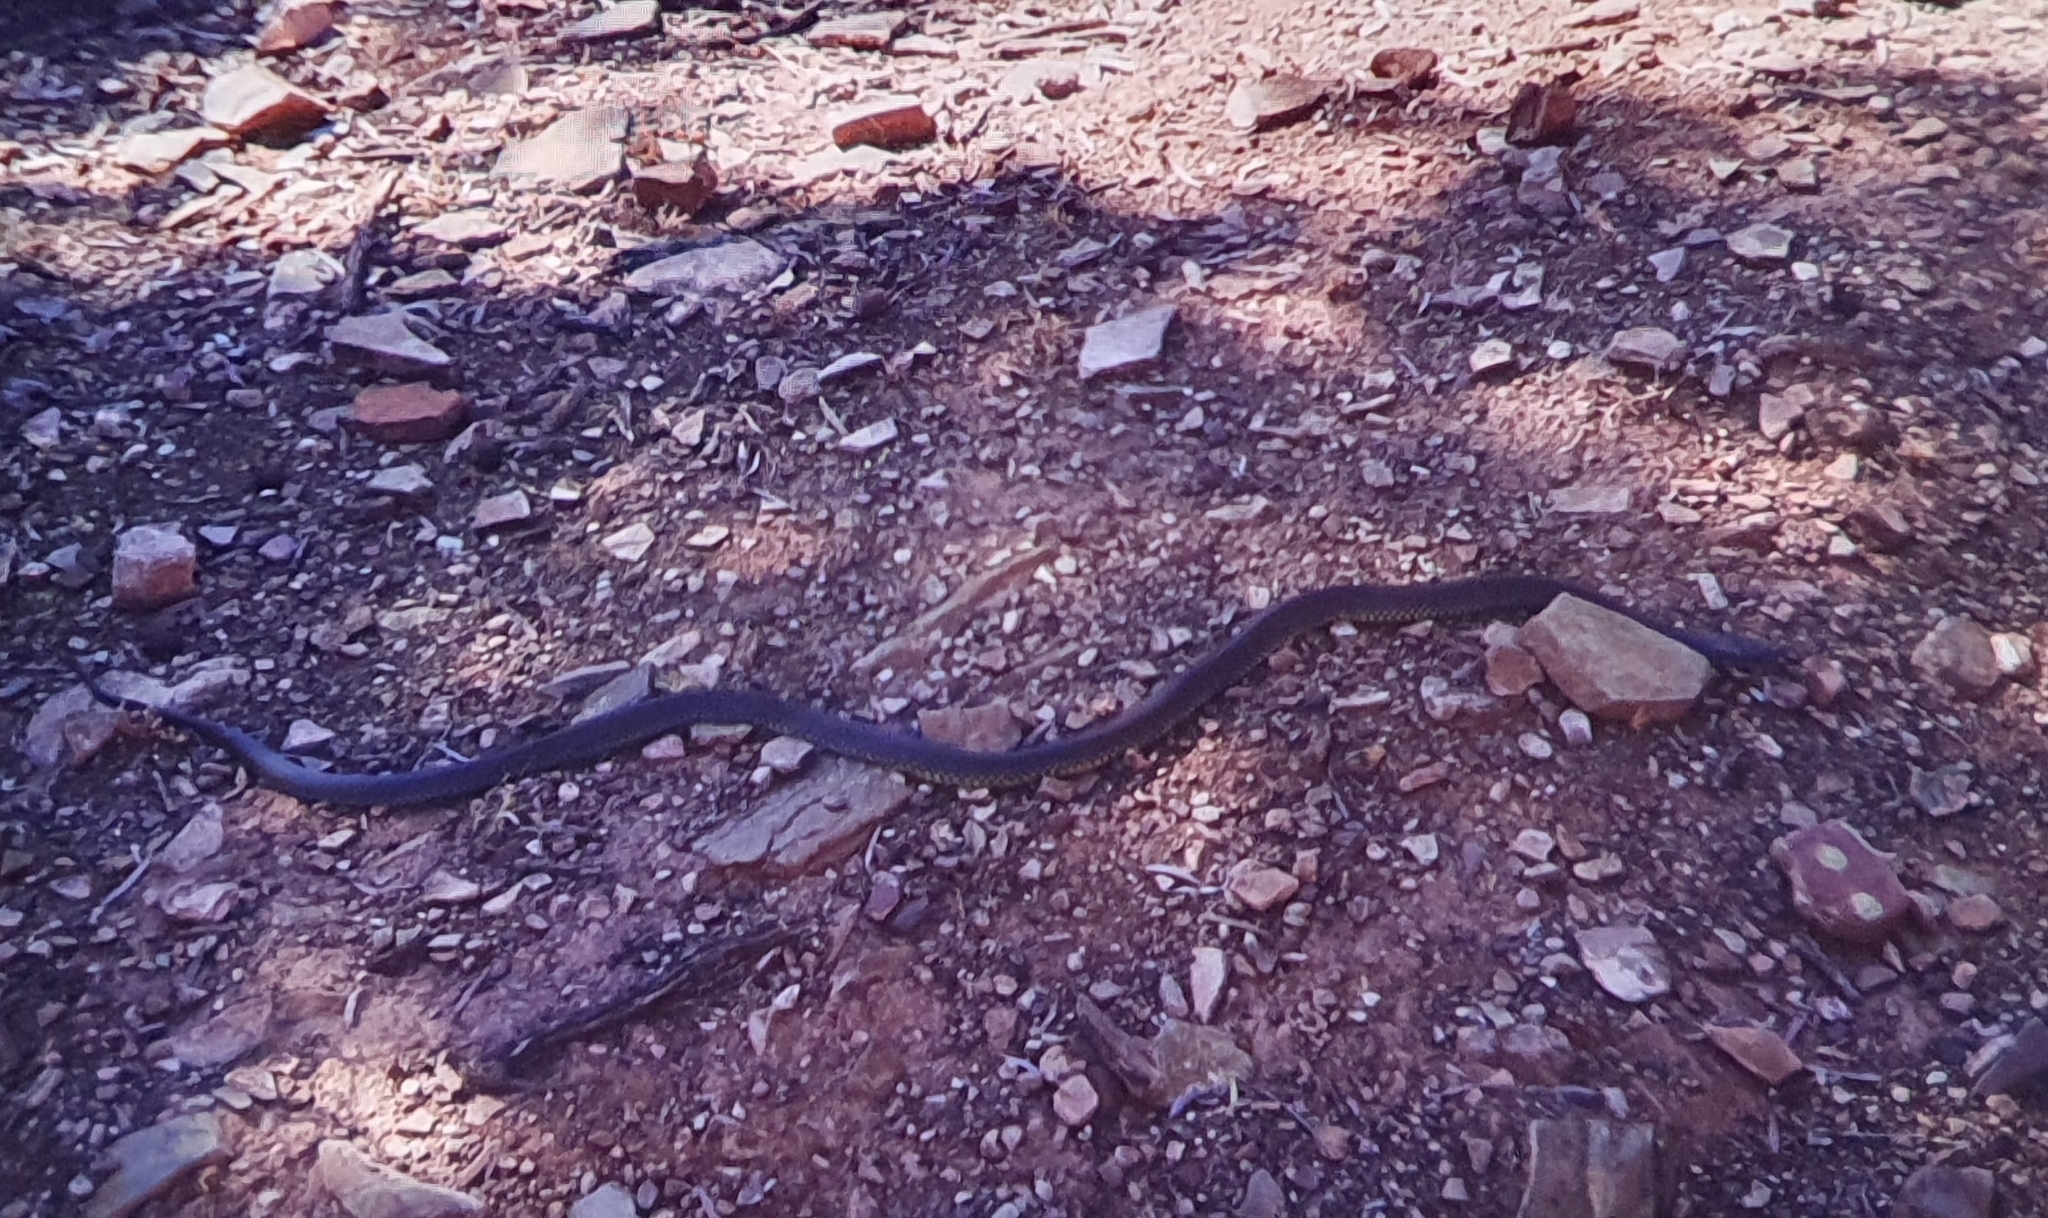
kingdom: Animalia
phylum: Chordata
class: Squamata
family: Elapidae
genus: Pseudechis
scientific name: Pseudechis australis
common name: King brown snake
